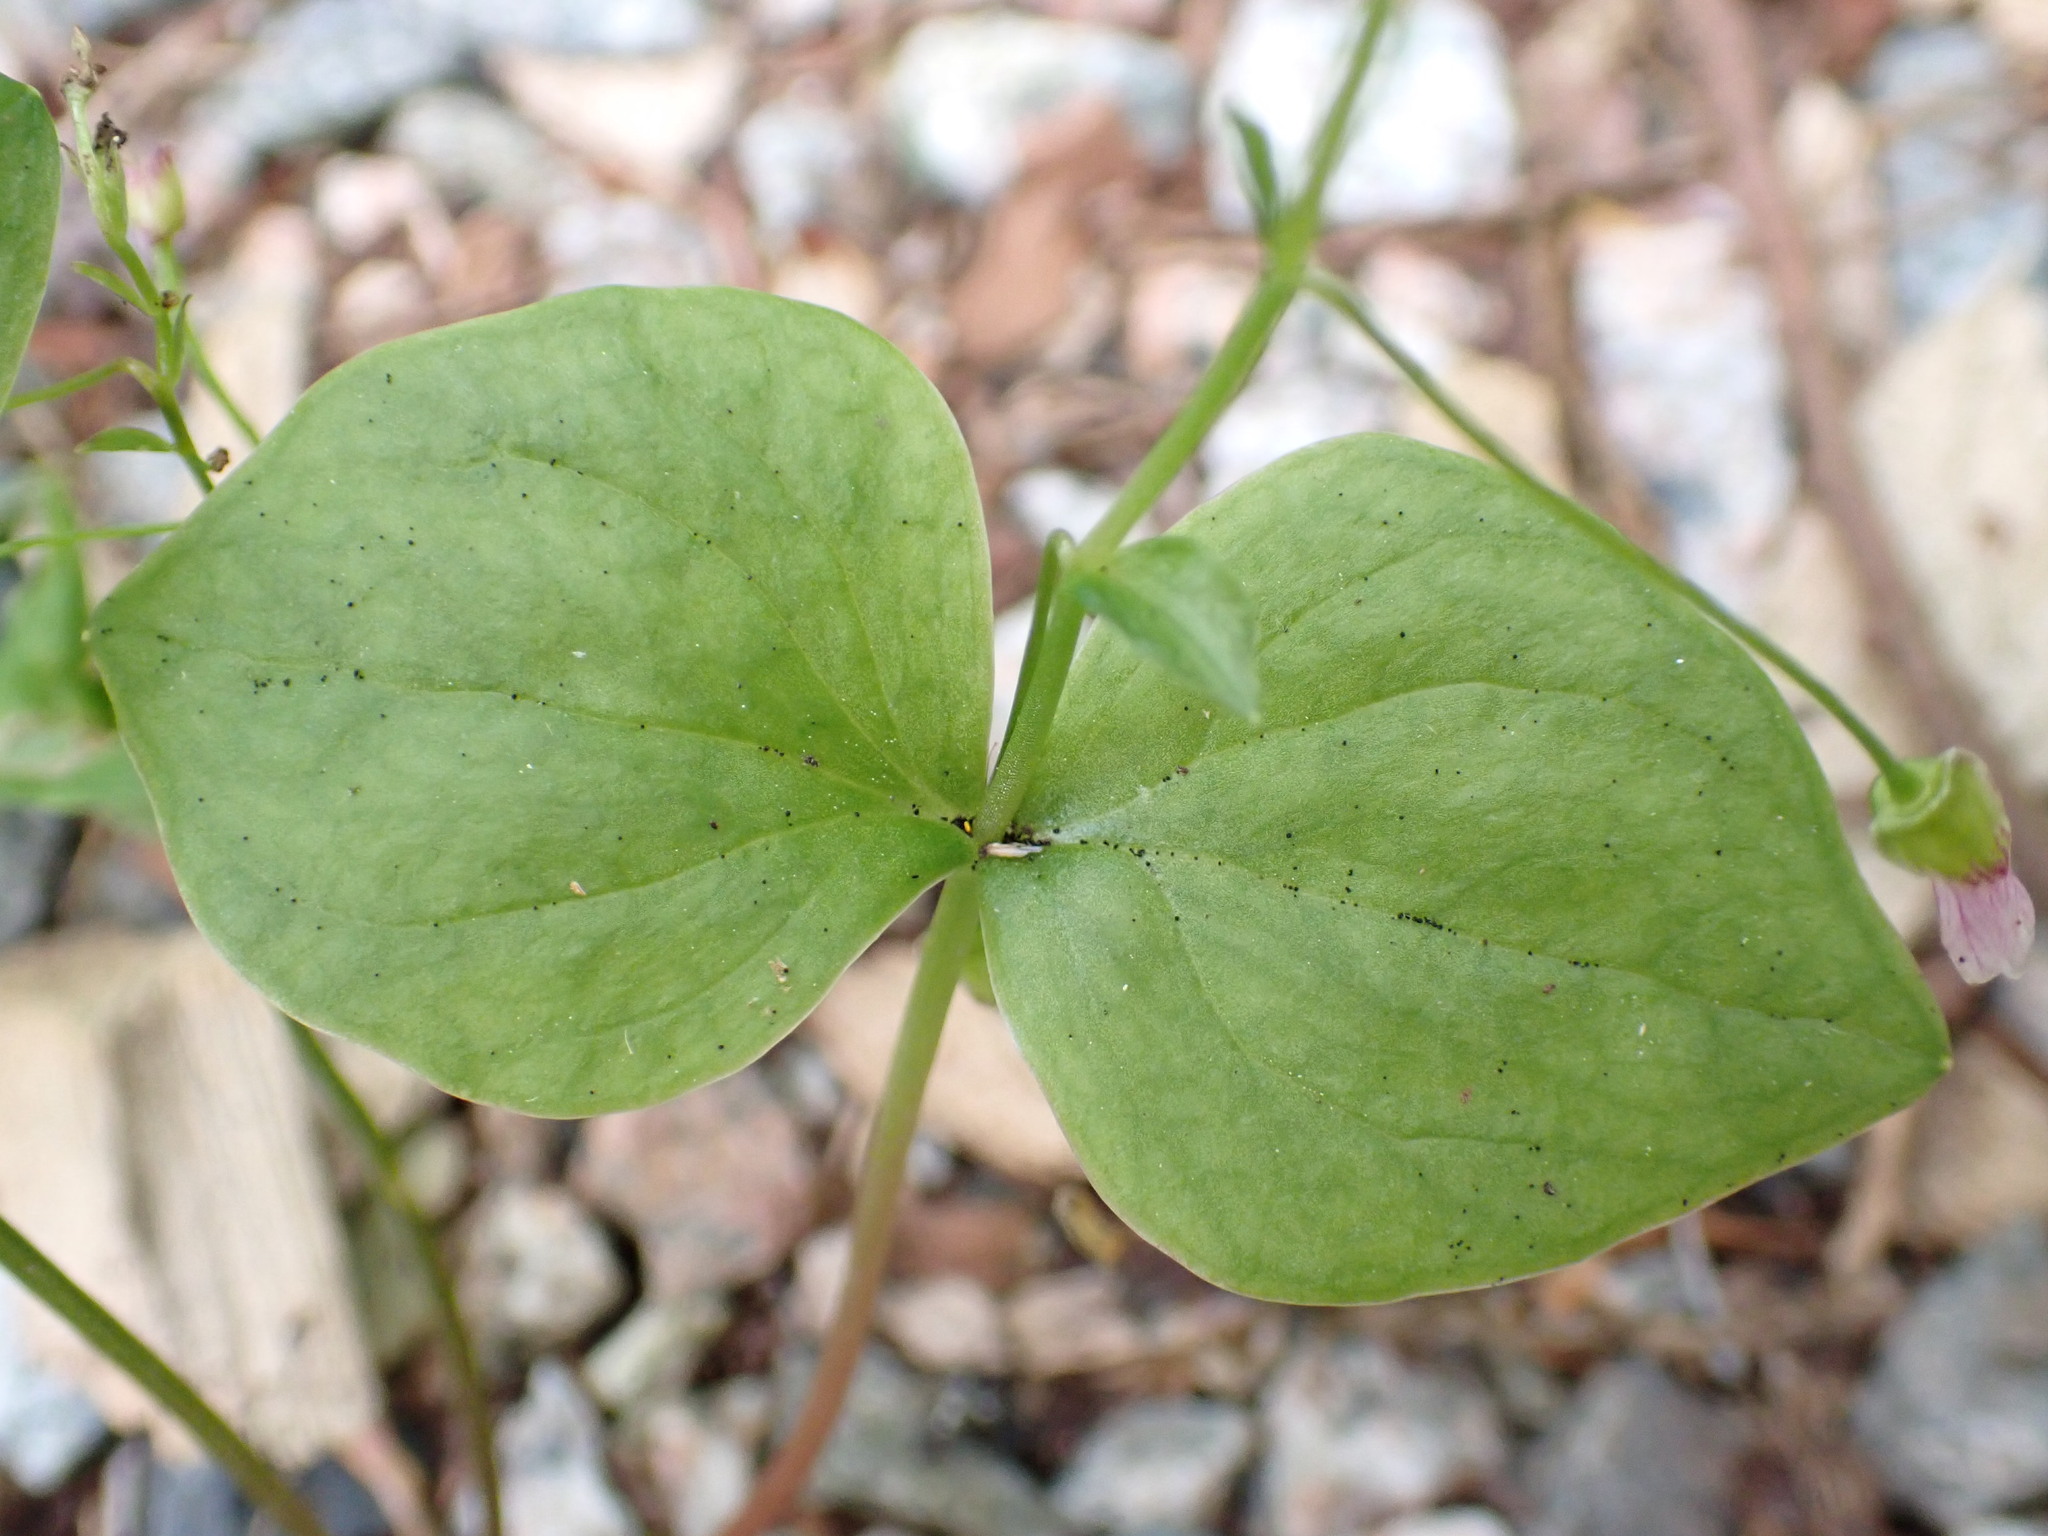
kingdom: Plantae
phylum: Tracheophyta
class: Magnoliopsida
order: Caryophyllales
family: Montiaceae
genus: Claytonia
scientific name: Claytonia sibirica
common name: Pink purslane
